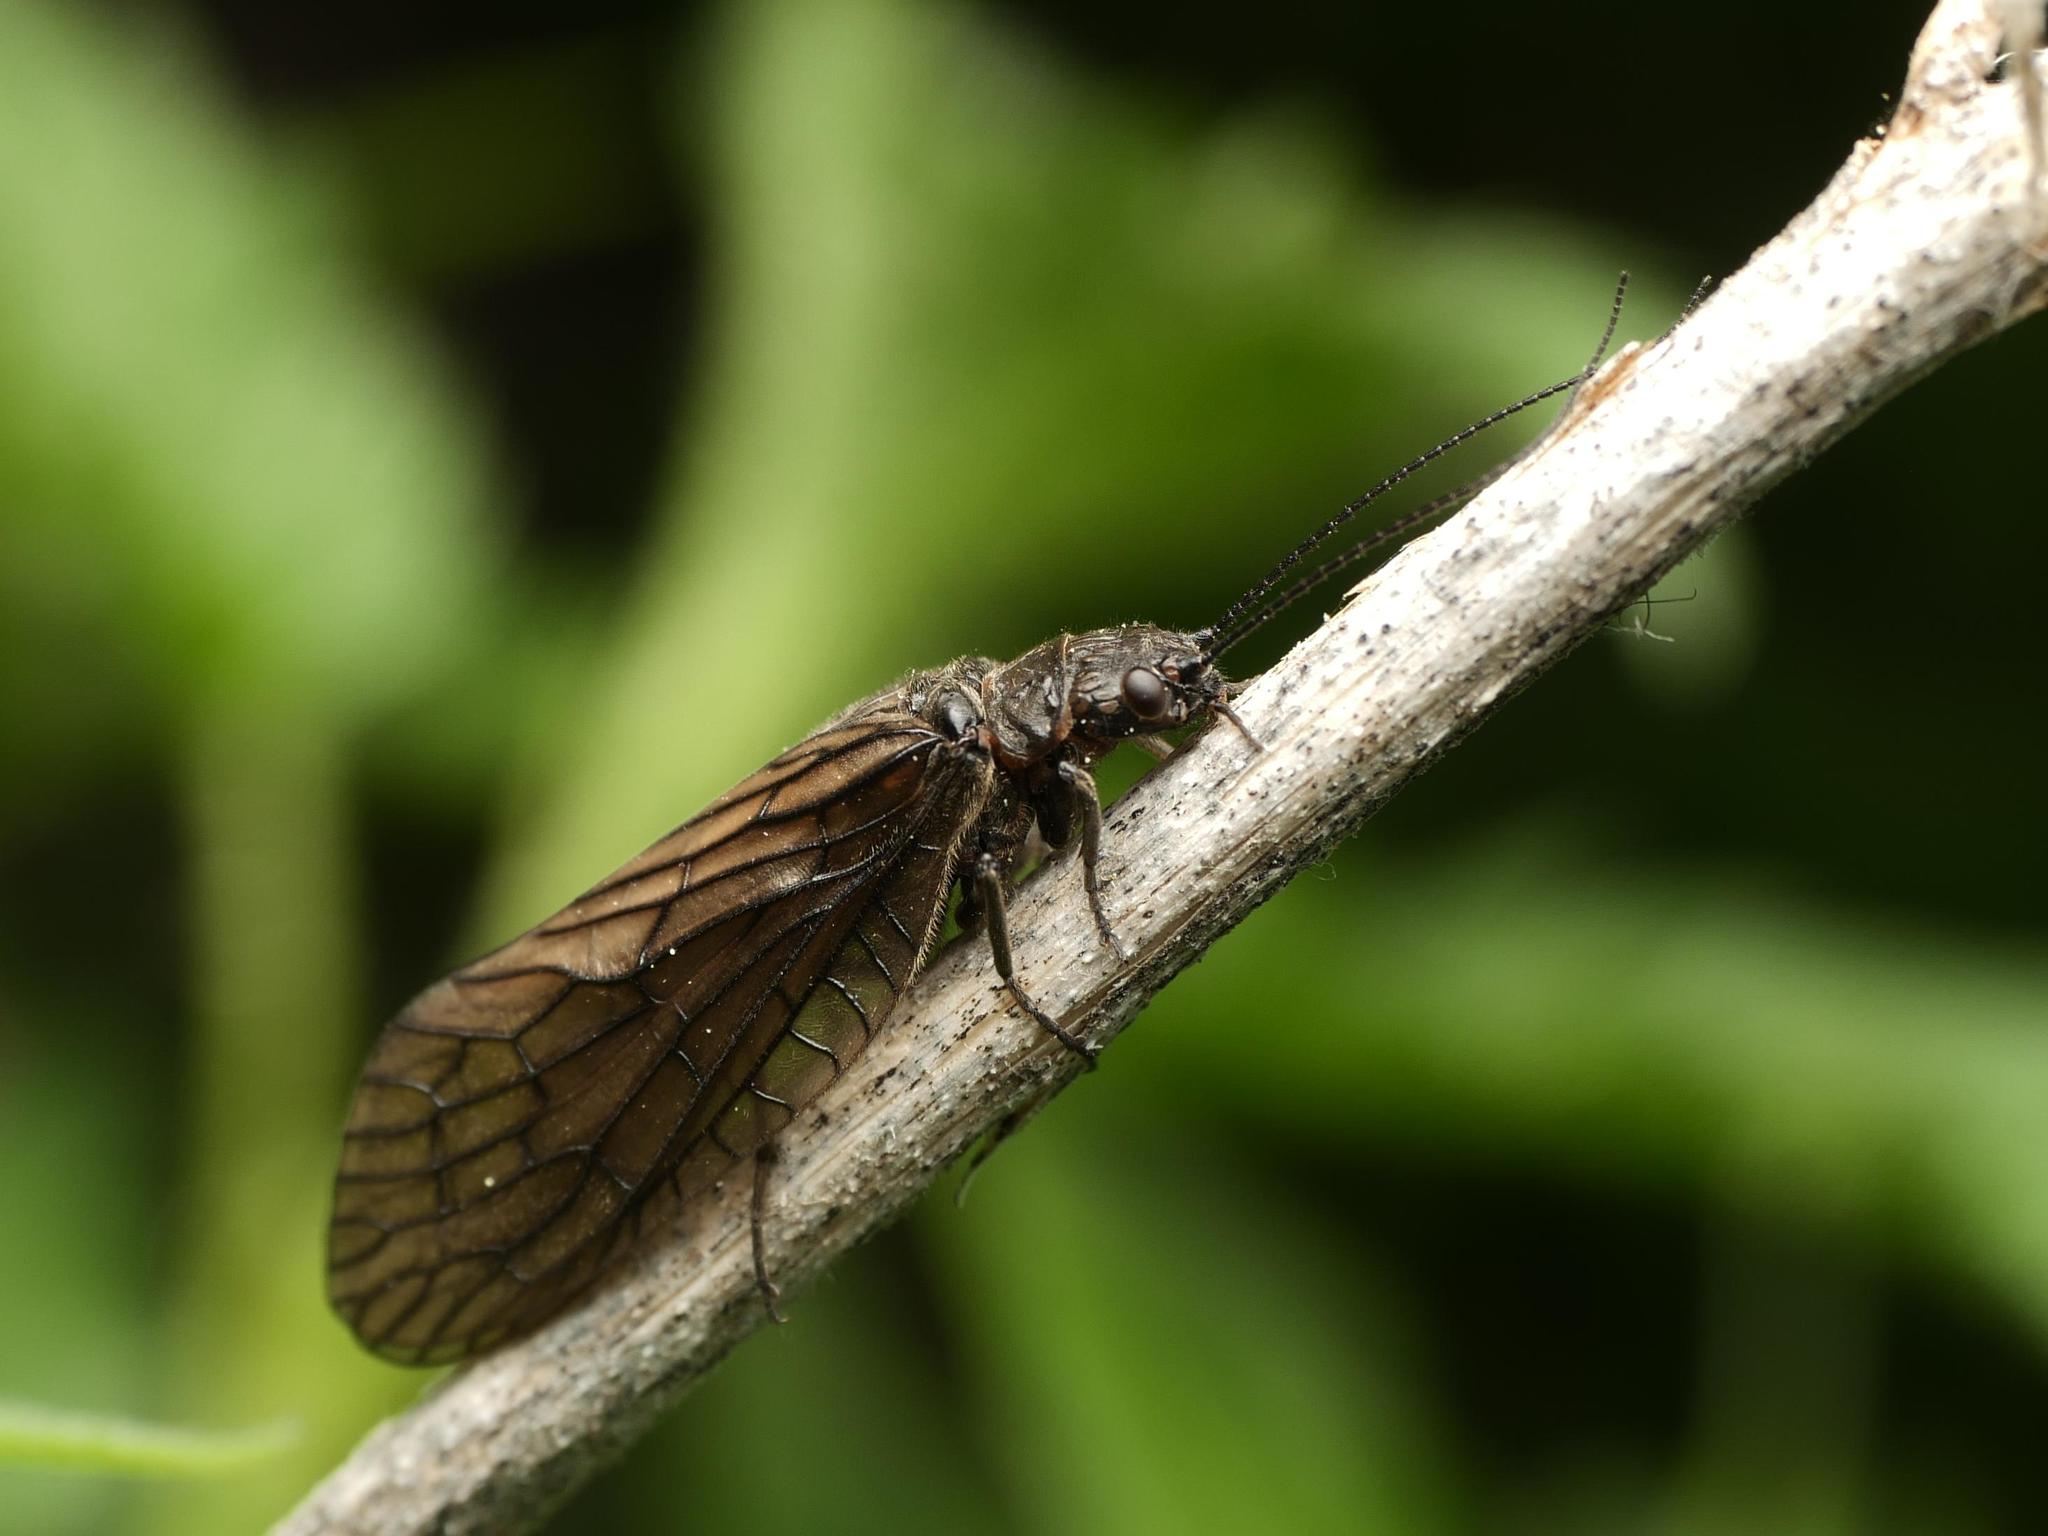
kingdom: Animalia
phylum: Arthropoda
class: Insecta
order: Megaloptera
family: Sialidae
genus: Sialis
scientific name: Sialis
